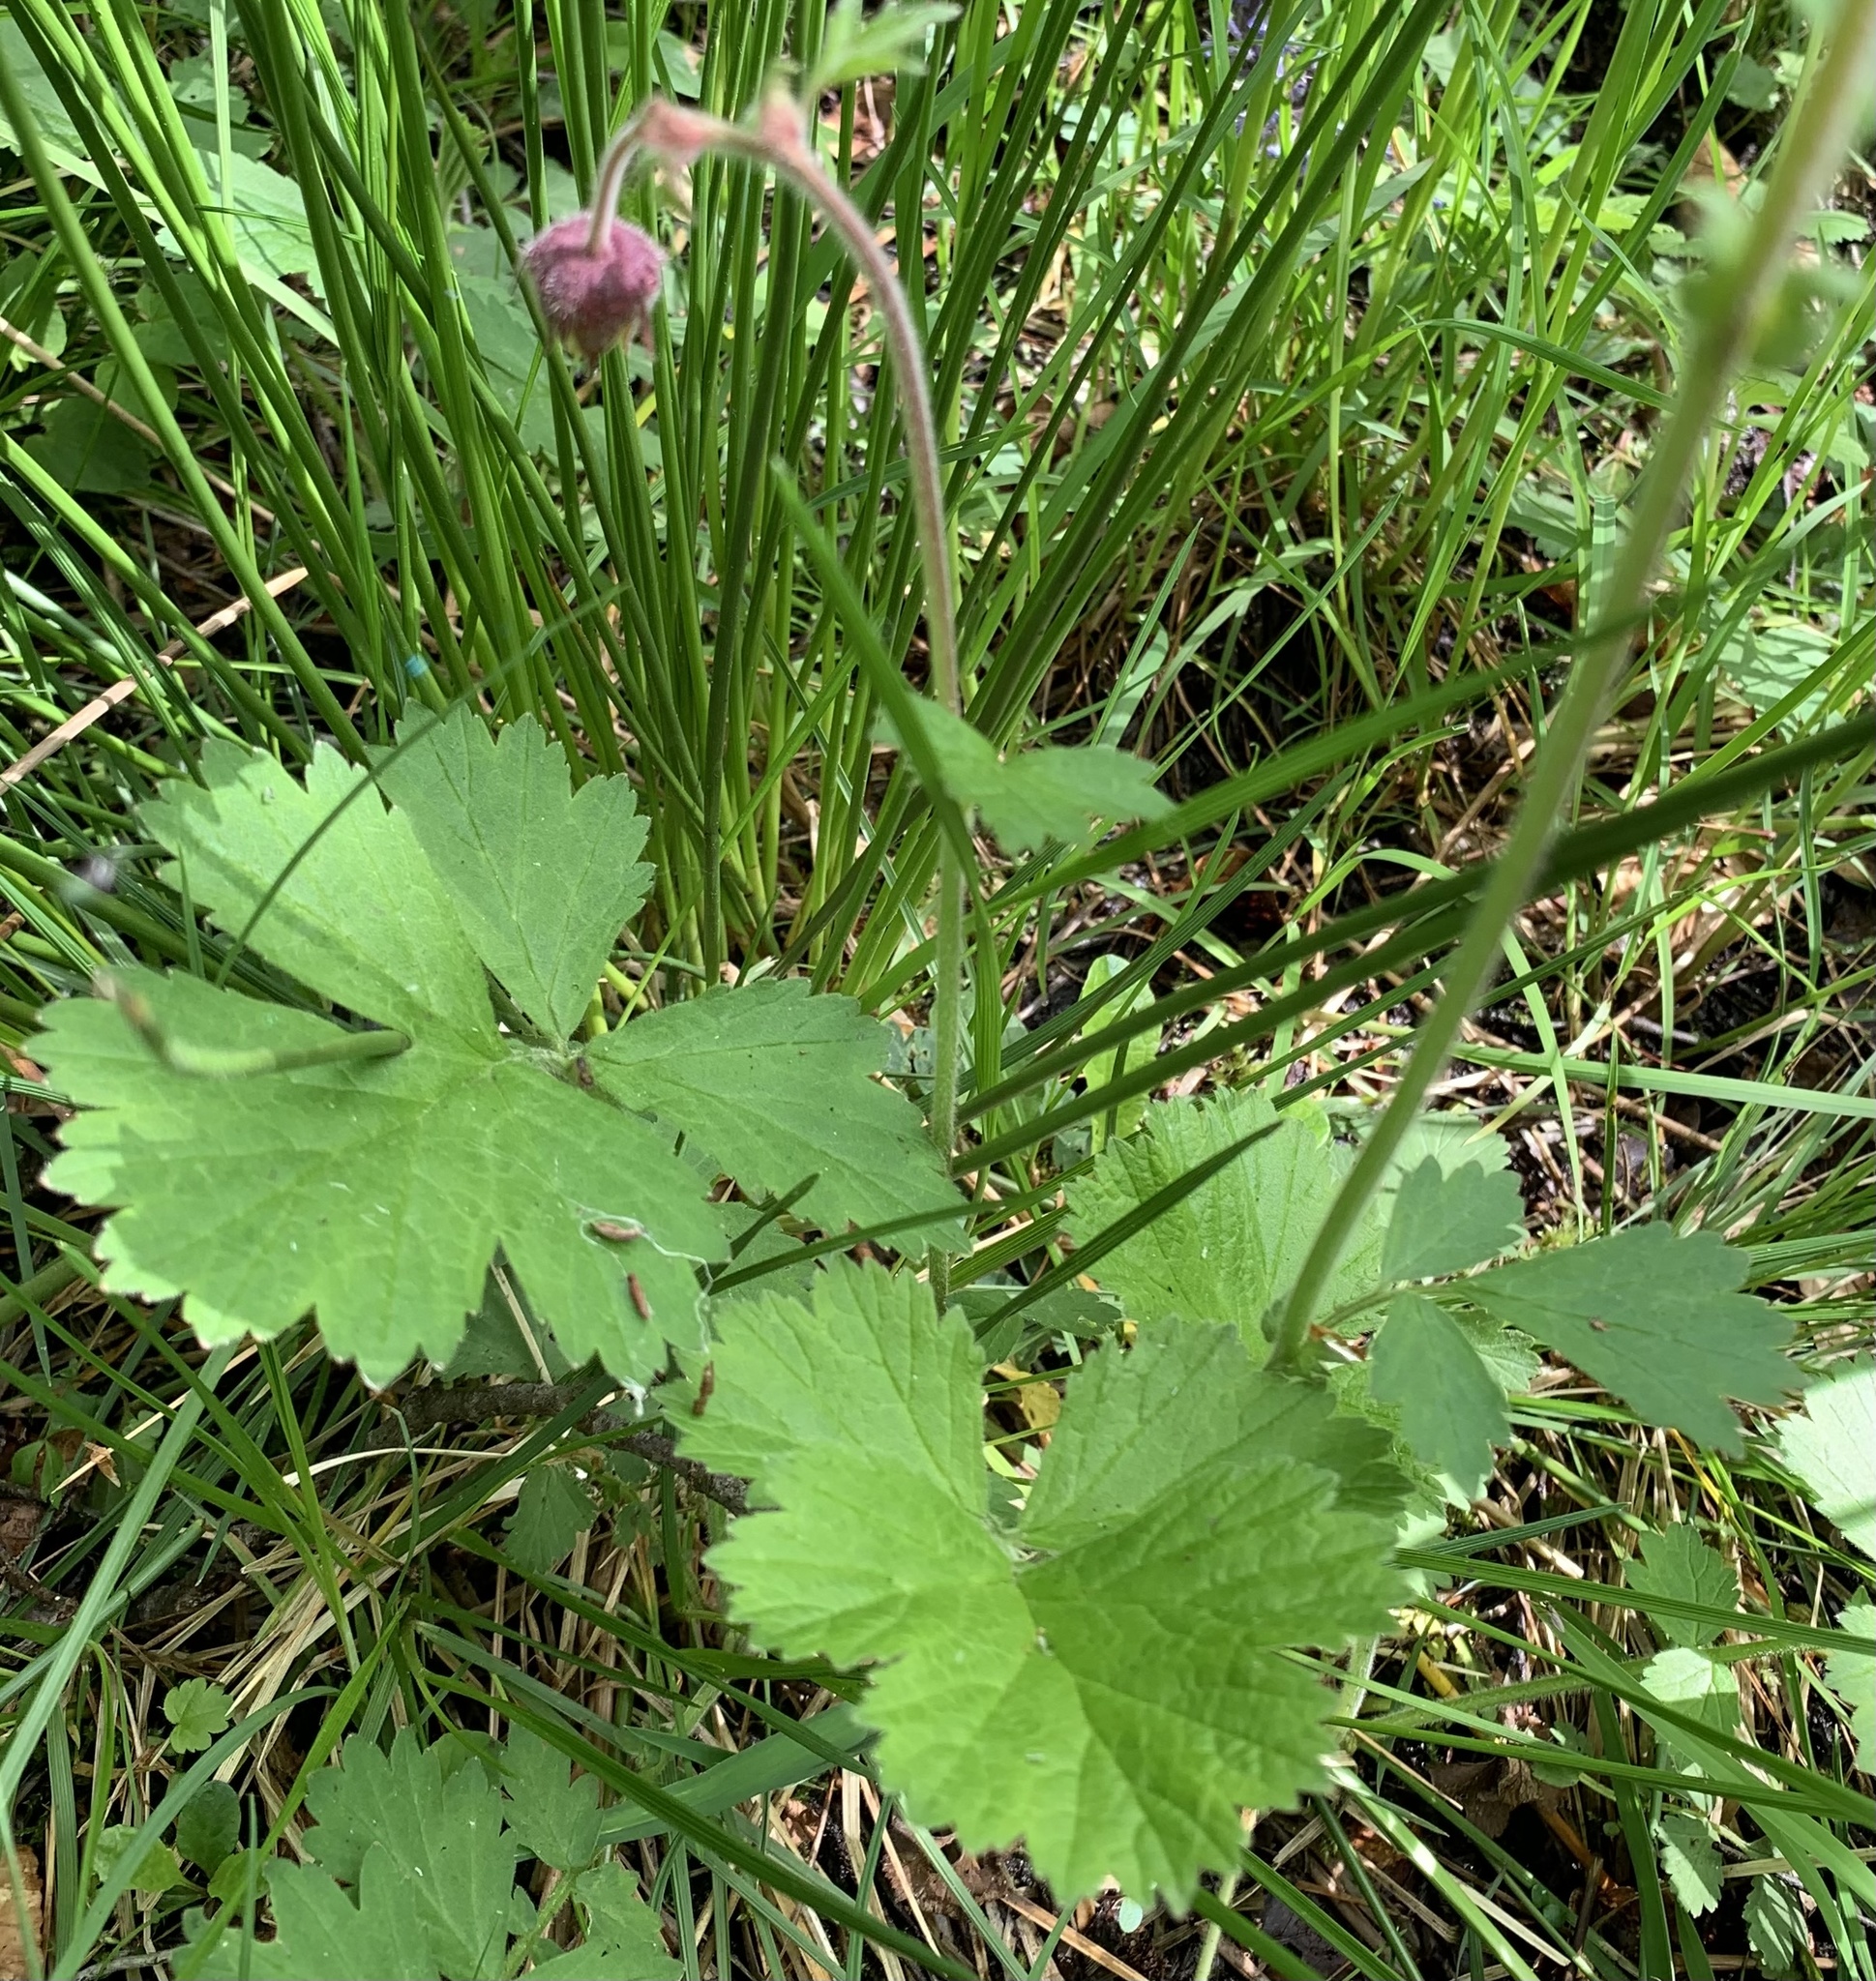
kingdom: Plantae
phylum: Tracheophyta
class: Magnoliopsida
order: Rosales
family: Rosaceae
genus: Geum
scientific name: Geum rivale
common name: Water avens
